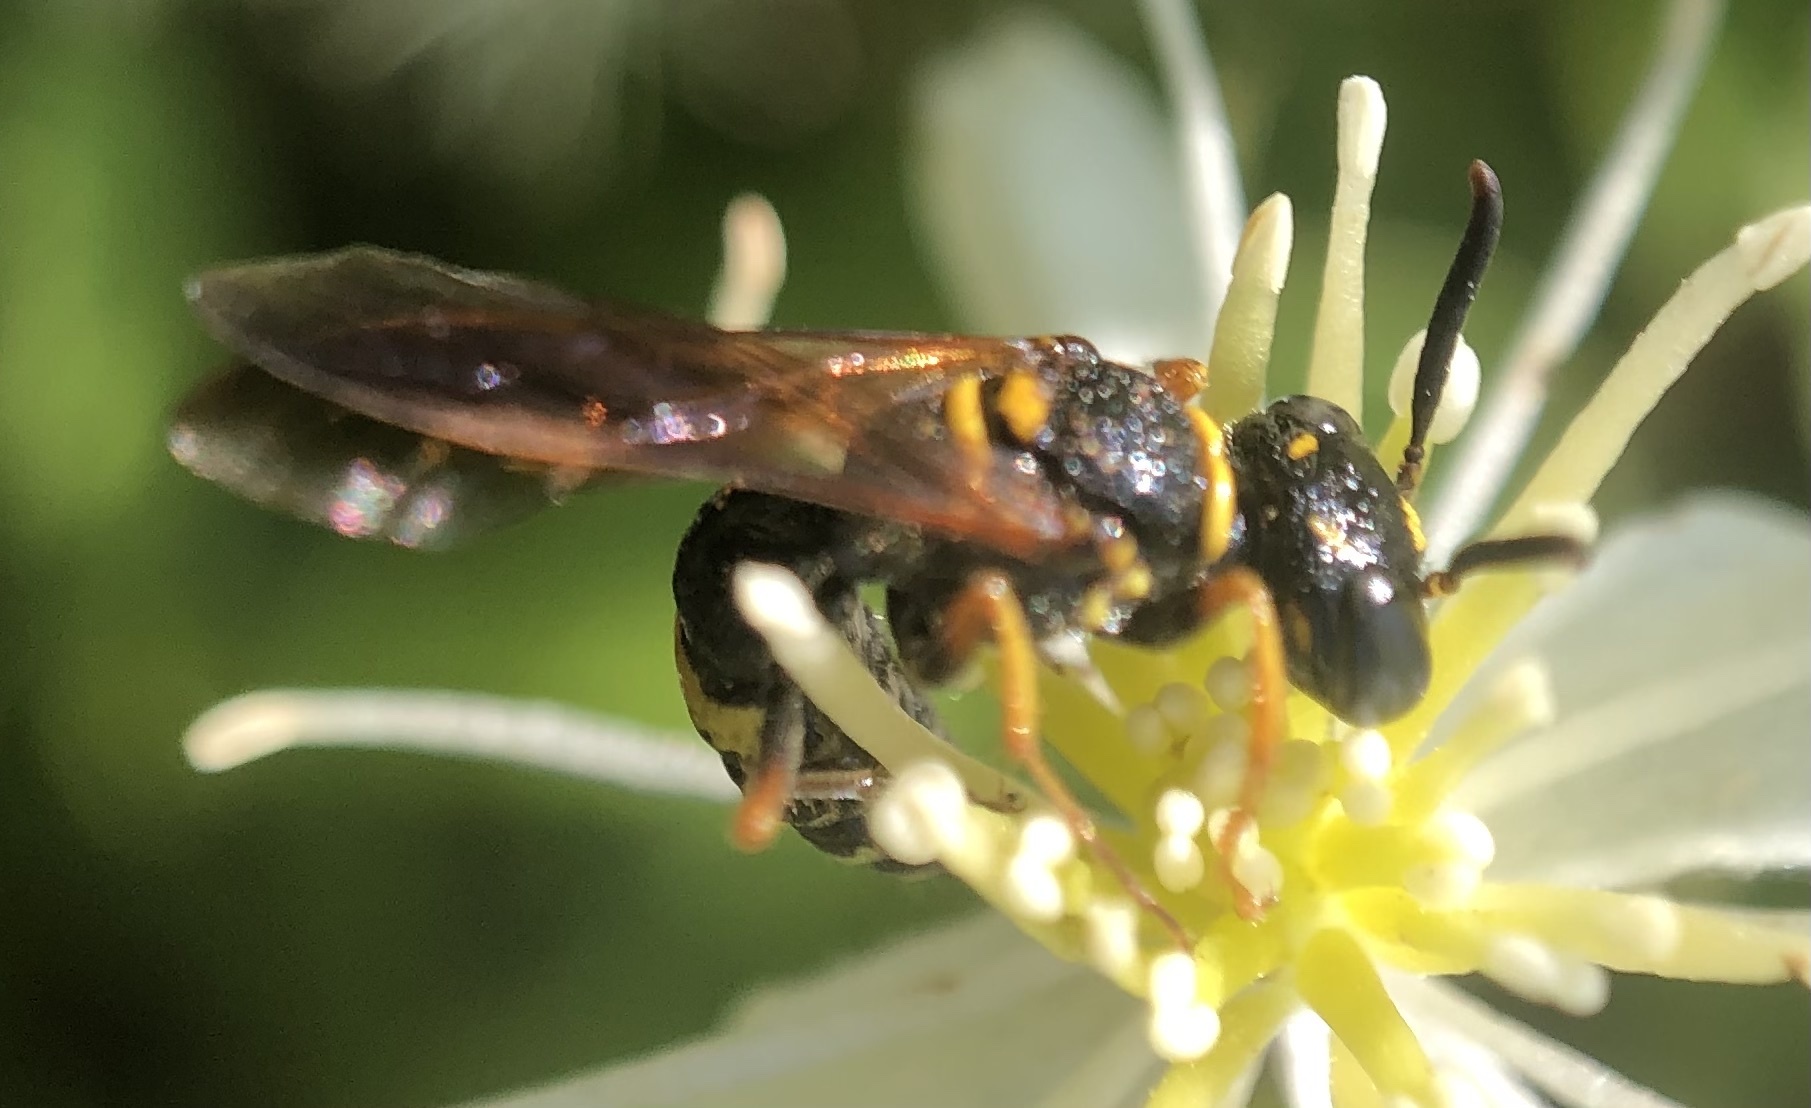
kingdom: Animalia
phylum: Arthropoda
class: Insecta
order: Hymenoptera
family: Crabronidae
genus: Philanthus
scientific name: Philanthus gibbosus
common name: Humped beewolf
